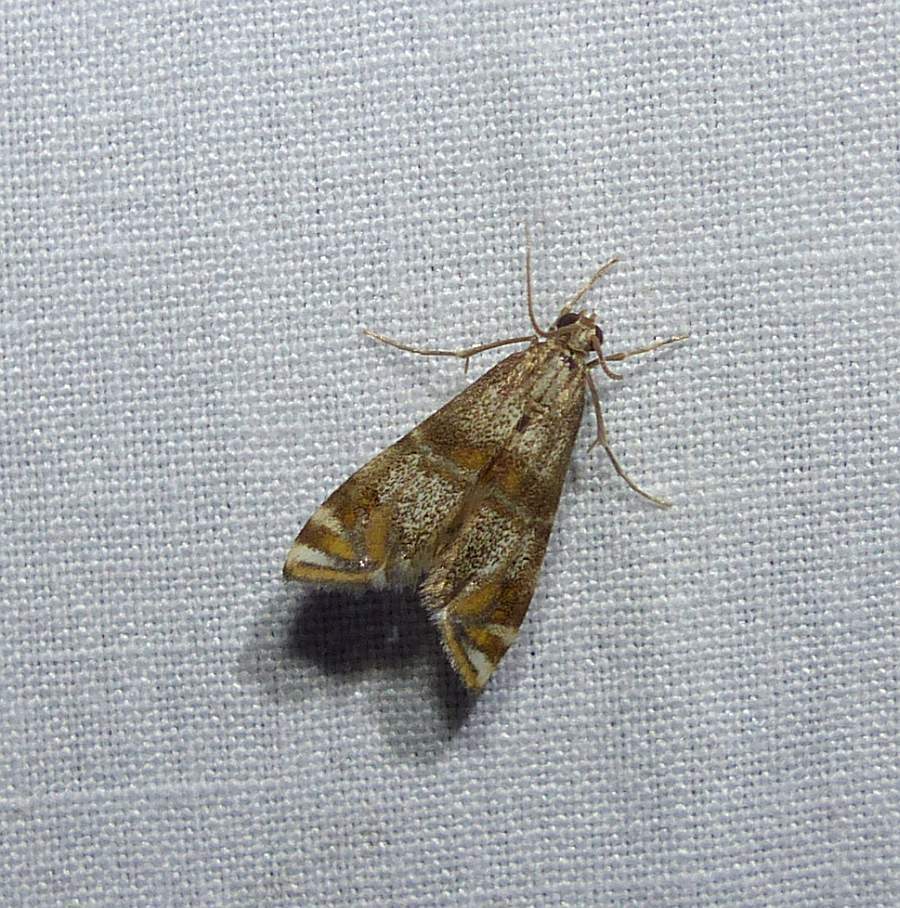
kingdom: Animalia
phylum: Arthropoda
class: Insecta
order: Lepidoptera
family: Crambidae
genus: Petrophila
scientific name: Petrophila bifascialis
